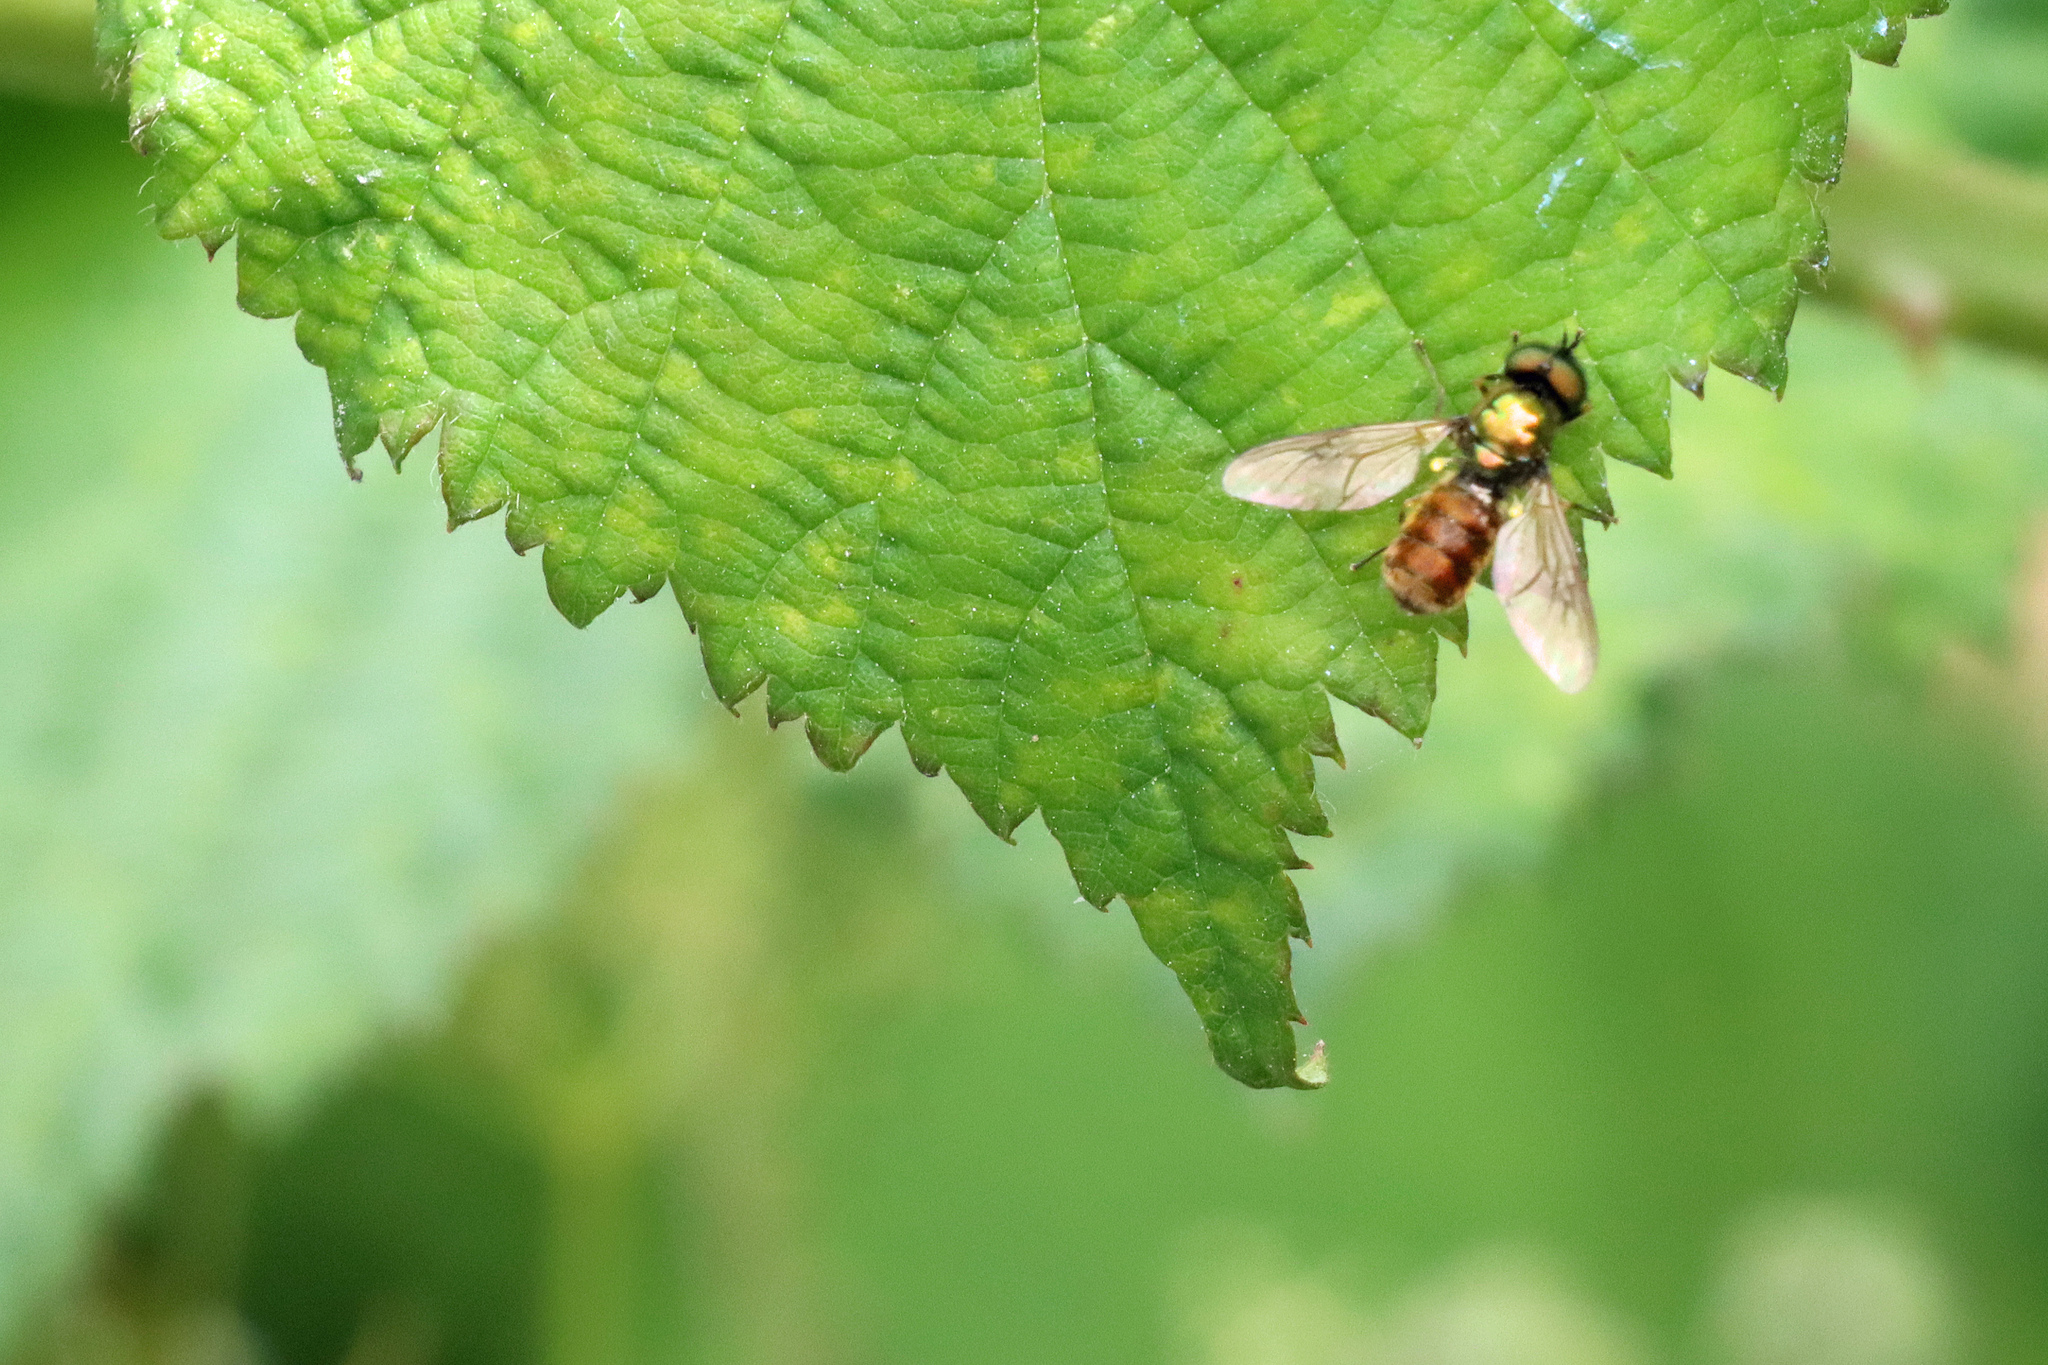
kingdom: Animalia
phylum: Arthropoda
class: Insecta
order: Diptera
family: Stratiomyidae
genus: Chloromyia
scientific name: Chloromyia formosa
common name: Soldier fly
